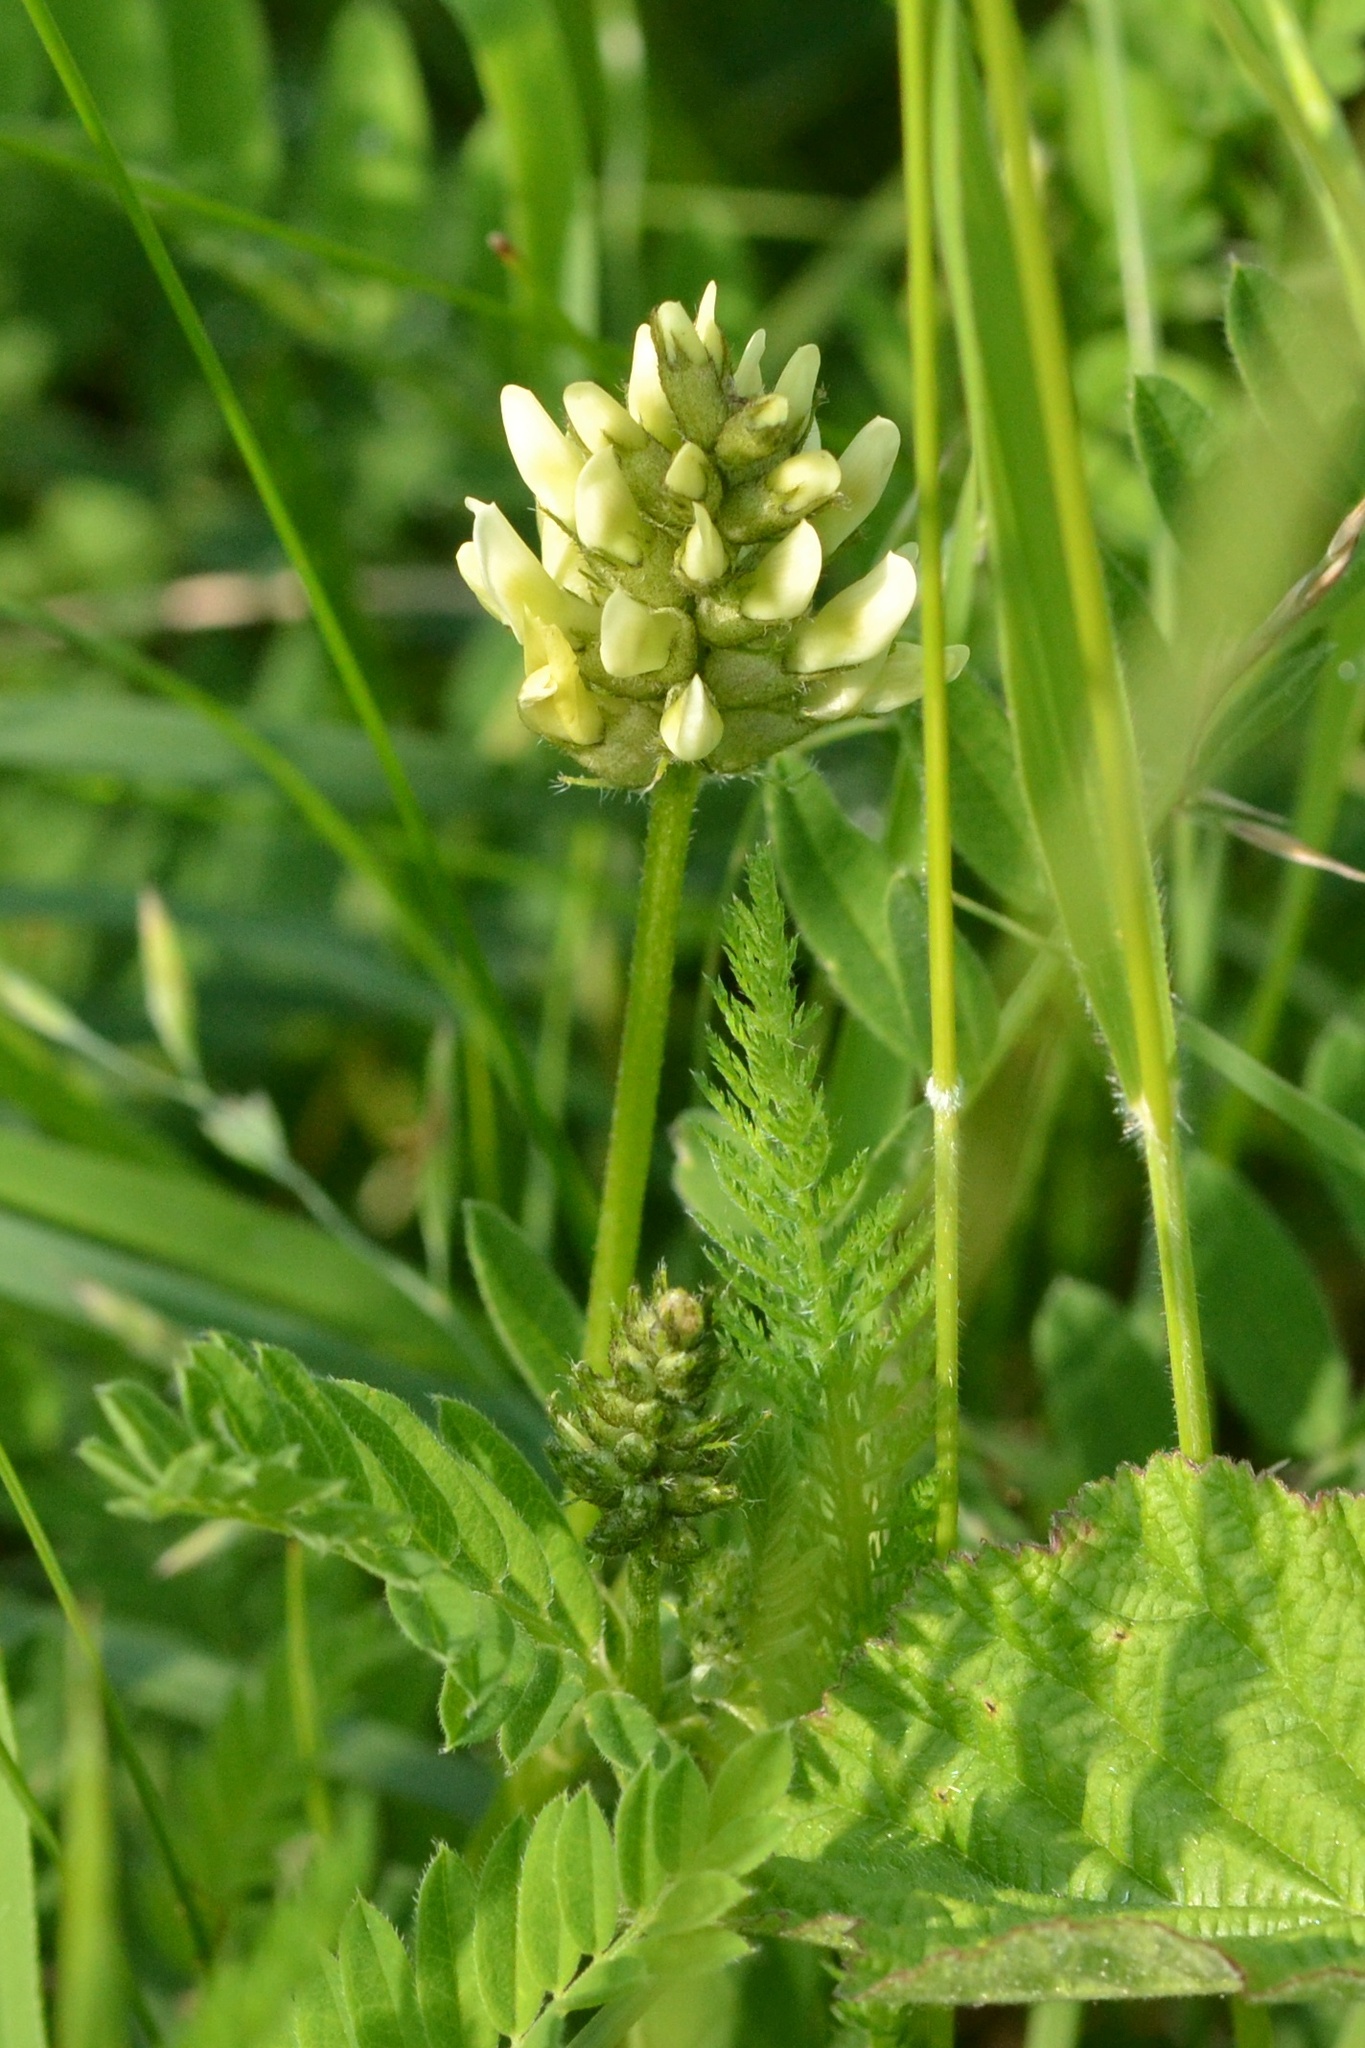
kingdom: Plantae
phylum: Tracheophyta
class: Magnoliopsida
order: Fabales
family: Fabaceae
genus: Astragalus
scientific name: Astragalus cicer
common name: Chick-pea milk-vetch
